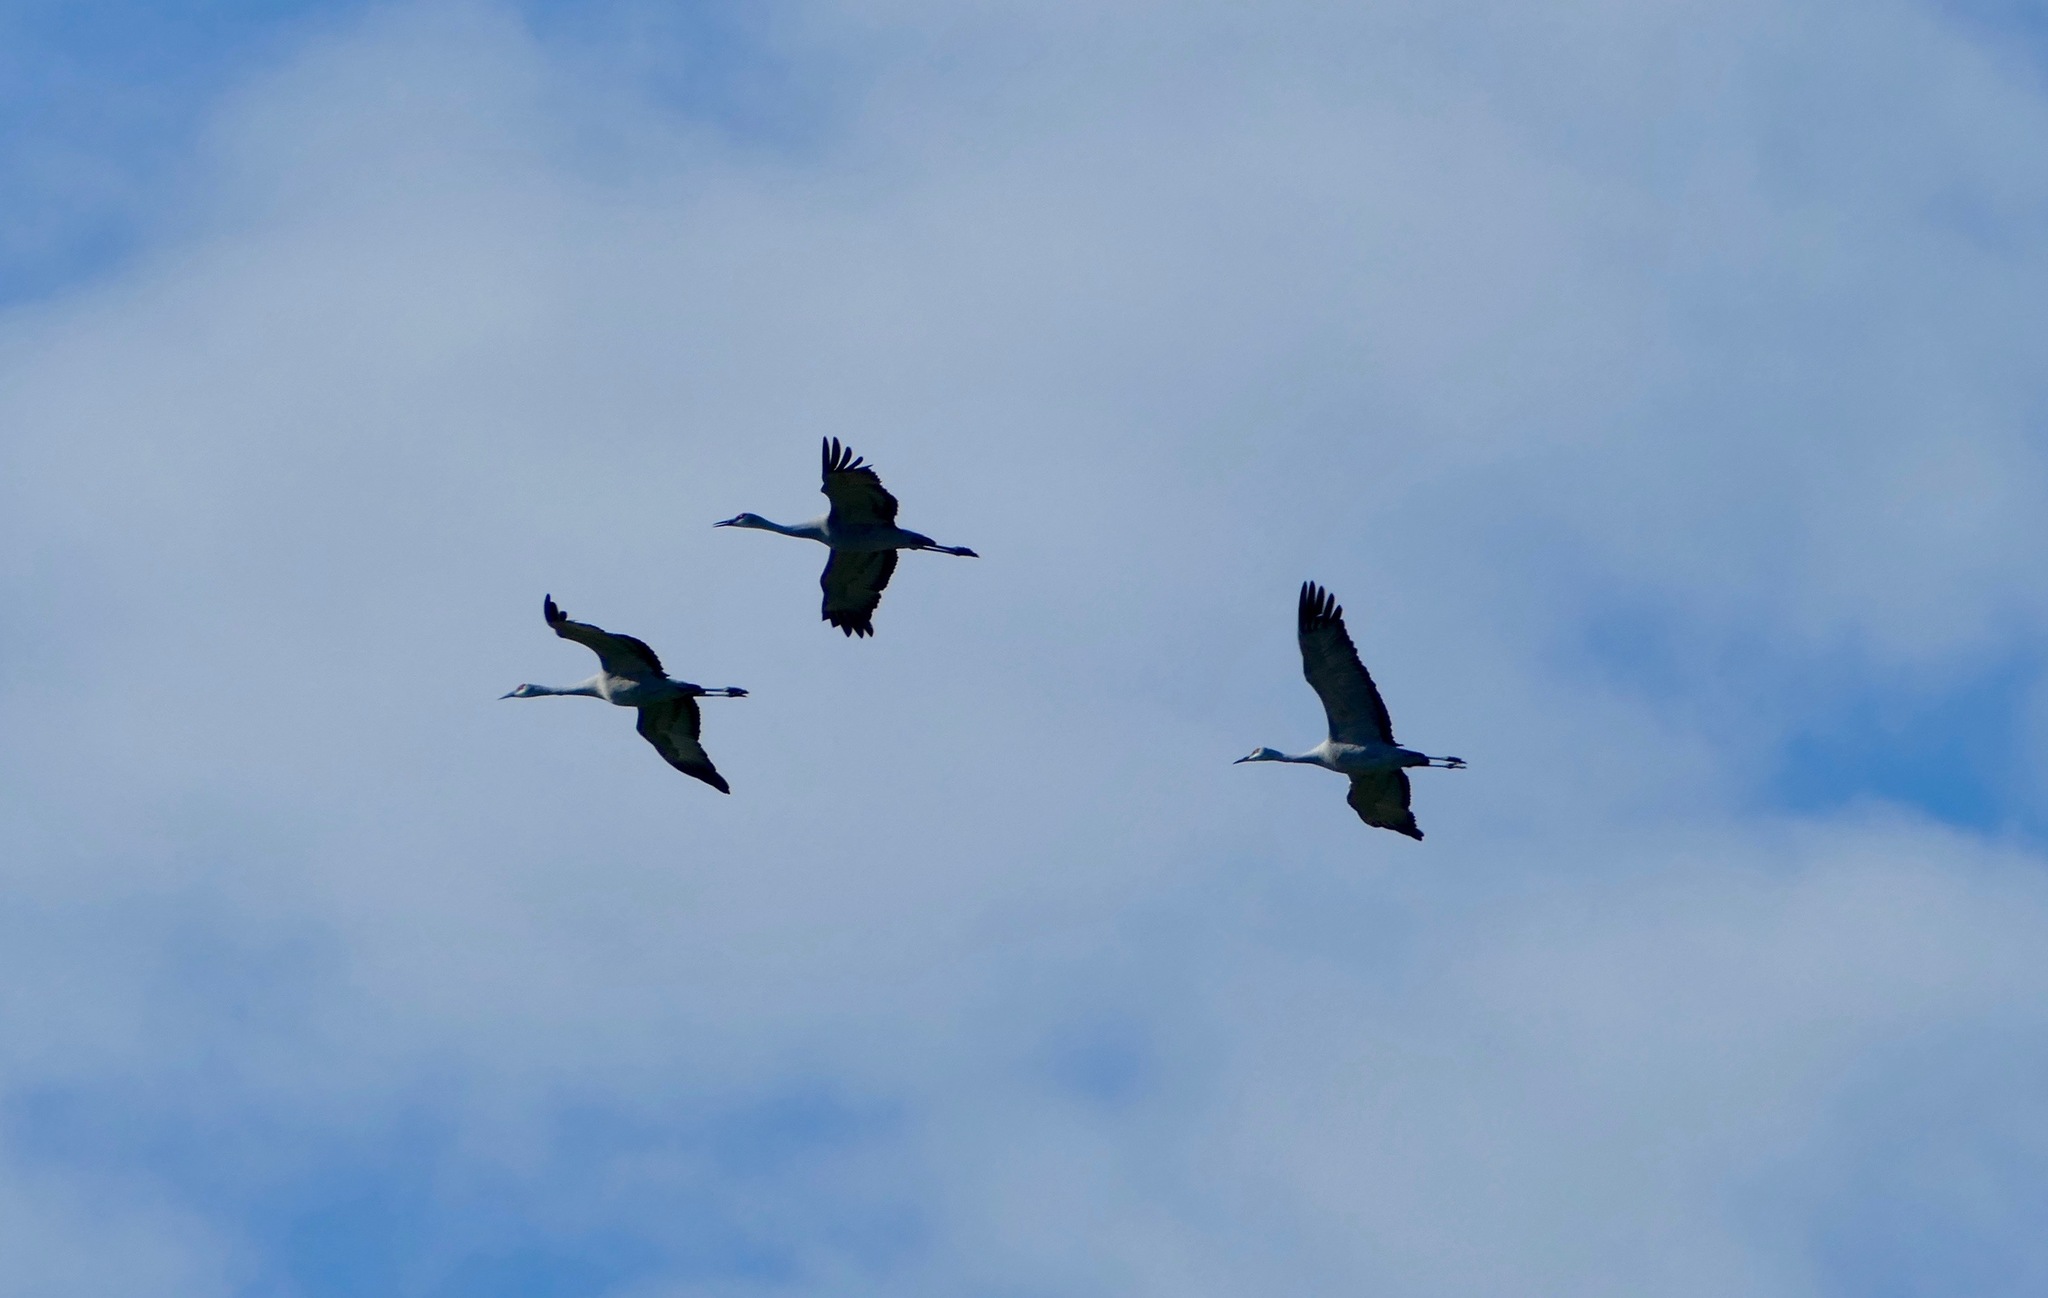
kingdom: Animalia
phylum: Chordata
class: Aves
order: Gruiformes
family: Gruidae
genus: Grus
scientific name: Grus canadensis
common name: Sandhill crane
